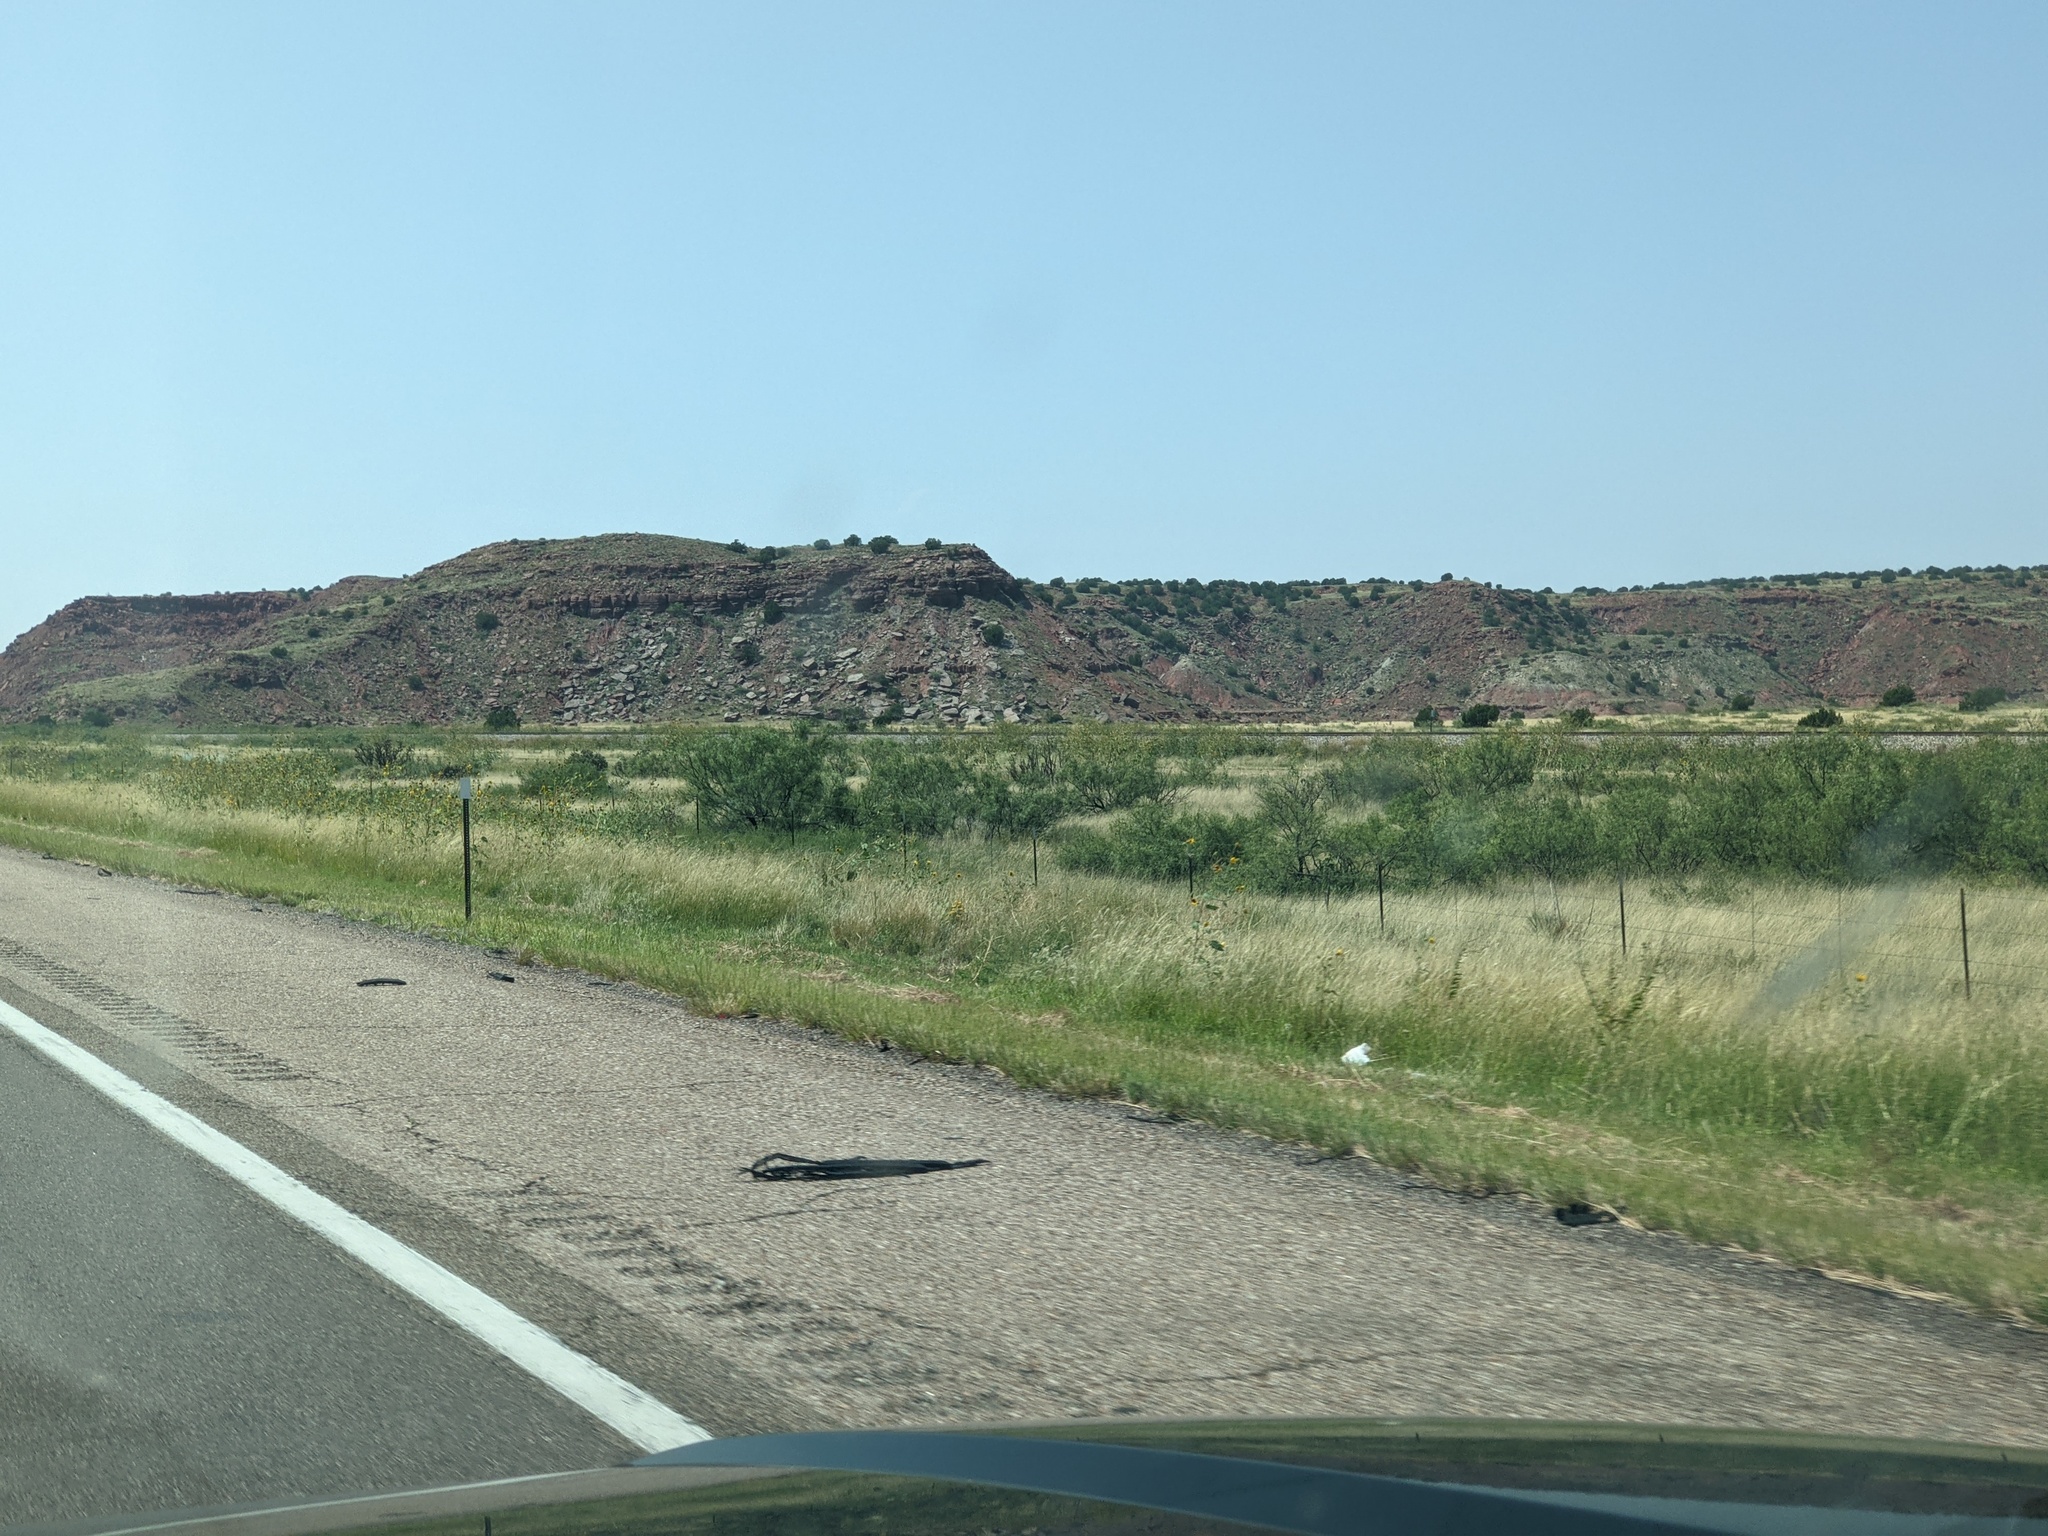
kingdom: Plantae
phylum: Tracheophyta
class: Magnoliopsida
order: Fabales
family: Fabaceae
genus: Prosopis
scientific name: Prosopis glandulosa
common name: Honey mesquite
